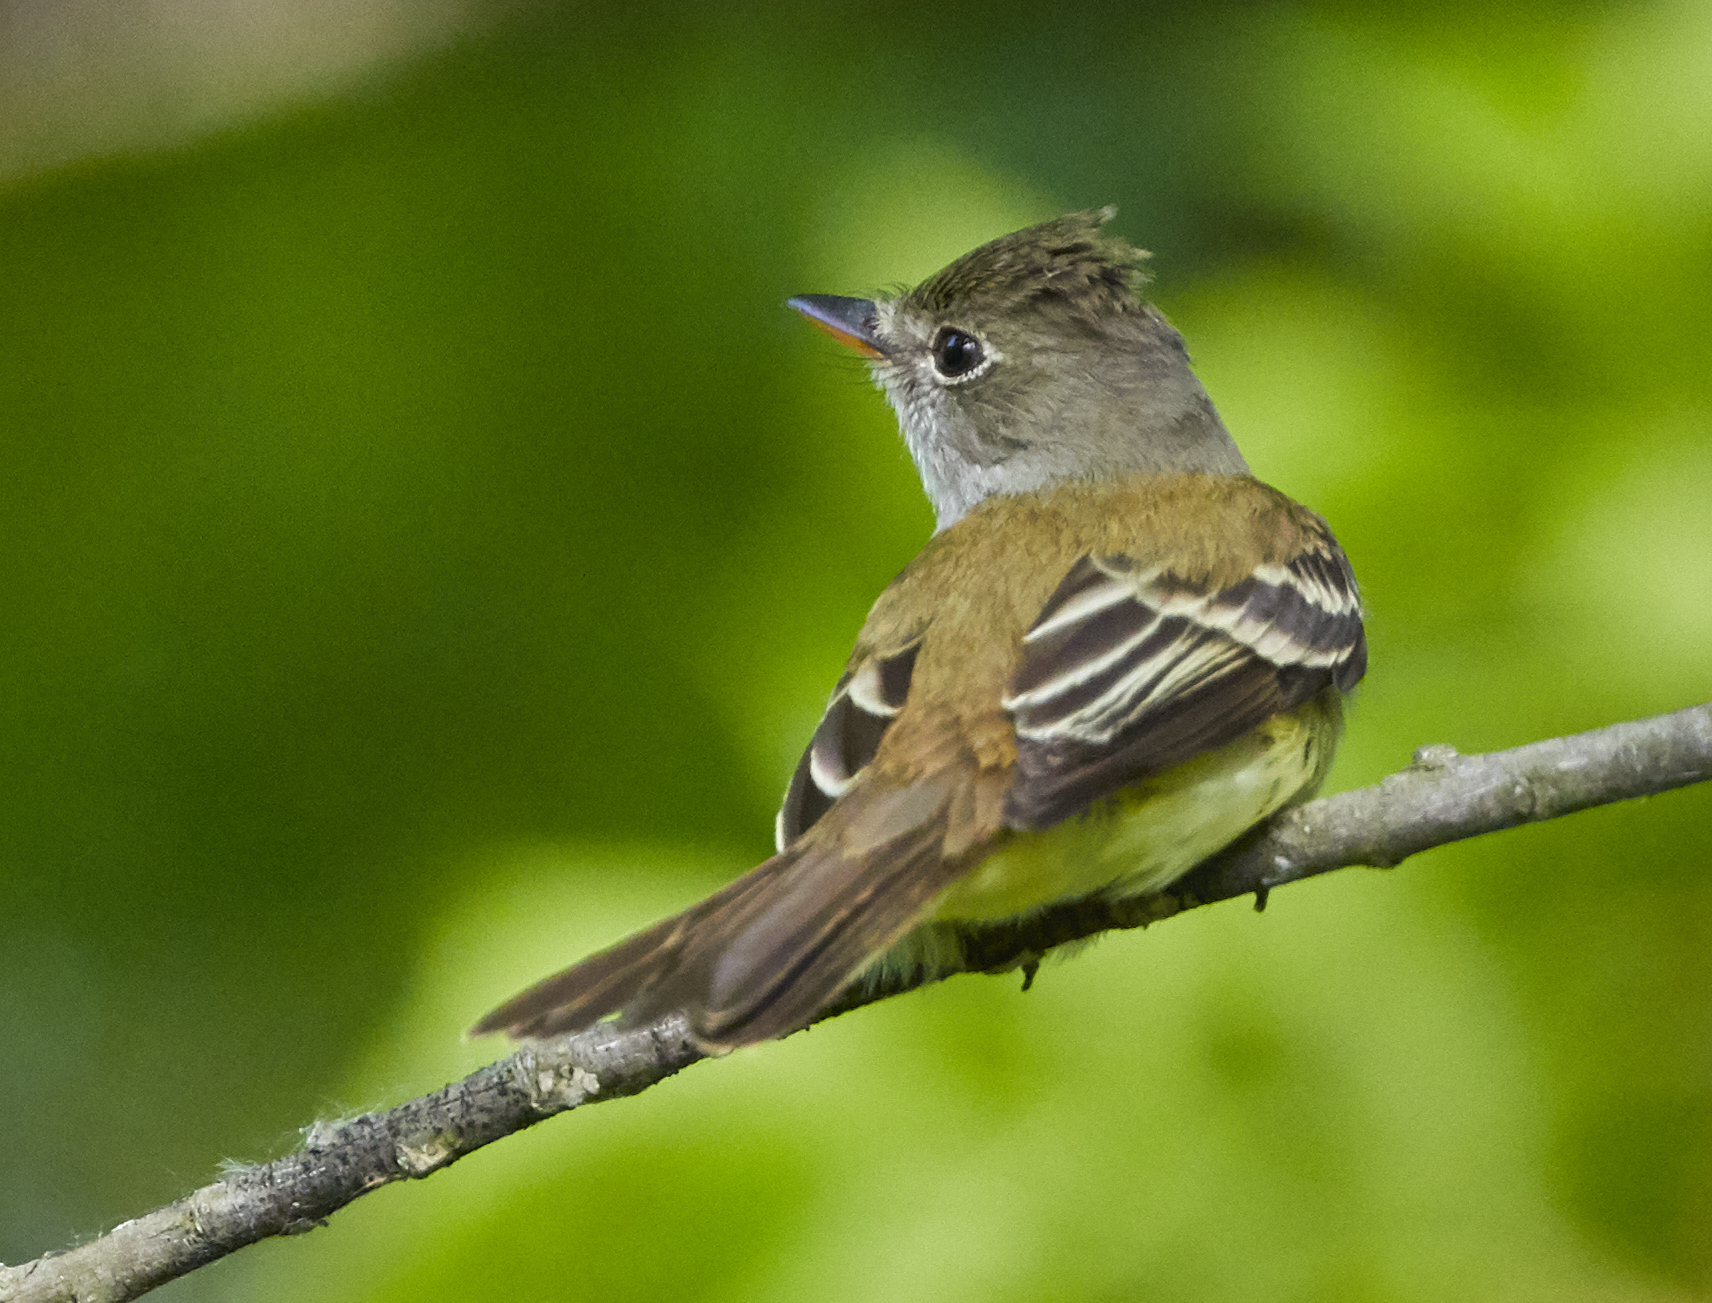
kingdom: Animalia
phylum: Chordata
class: Aves
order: Passeriformes
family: Tyrannidae
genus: Myiarchus
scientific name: Myiarchus crinitus
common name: Great crested flycatcher
